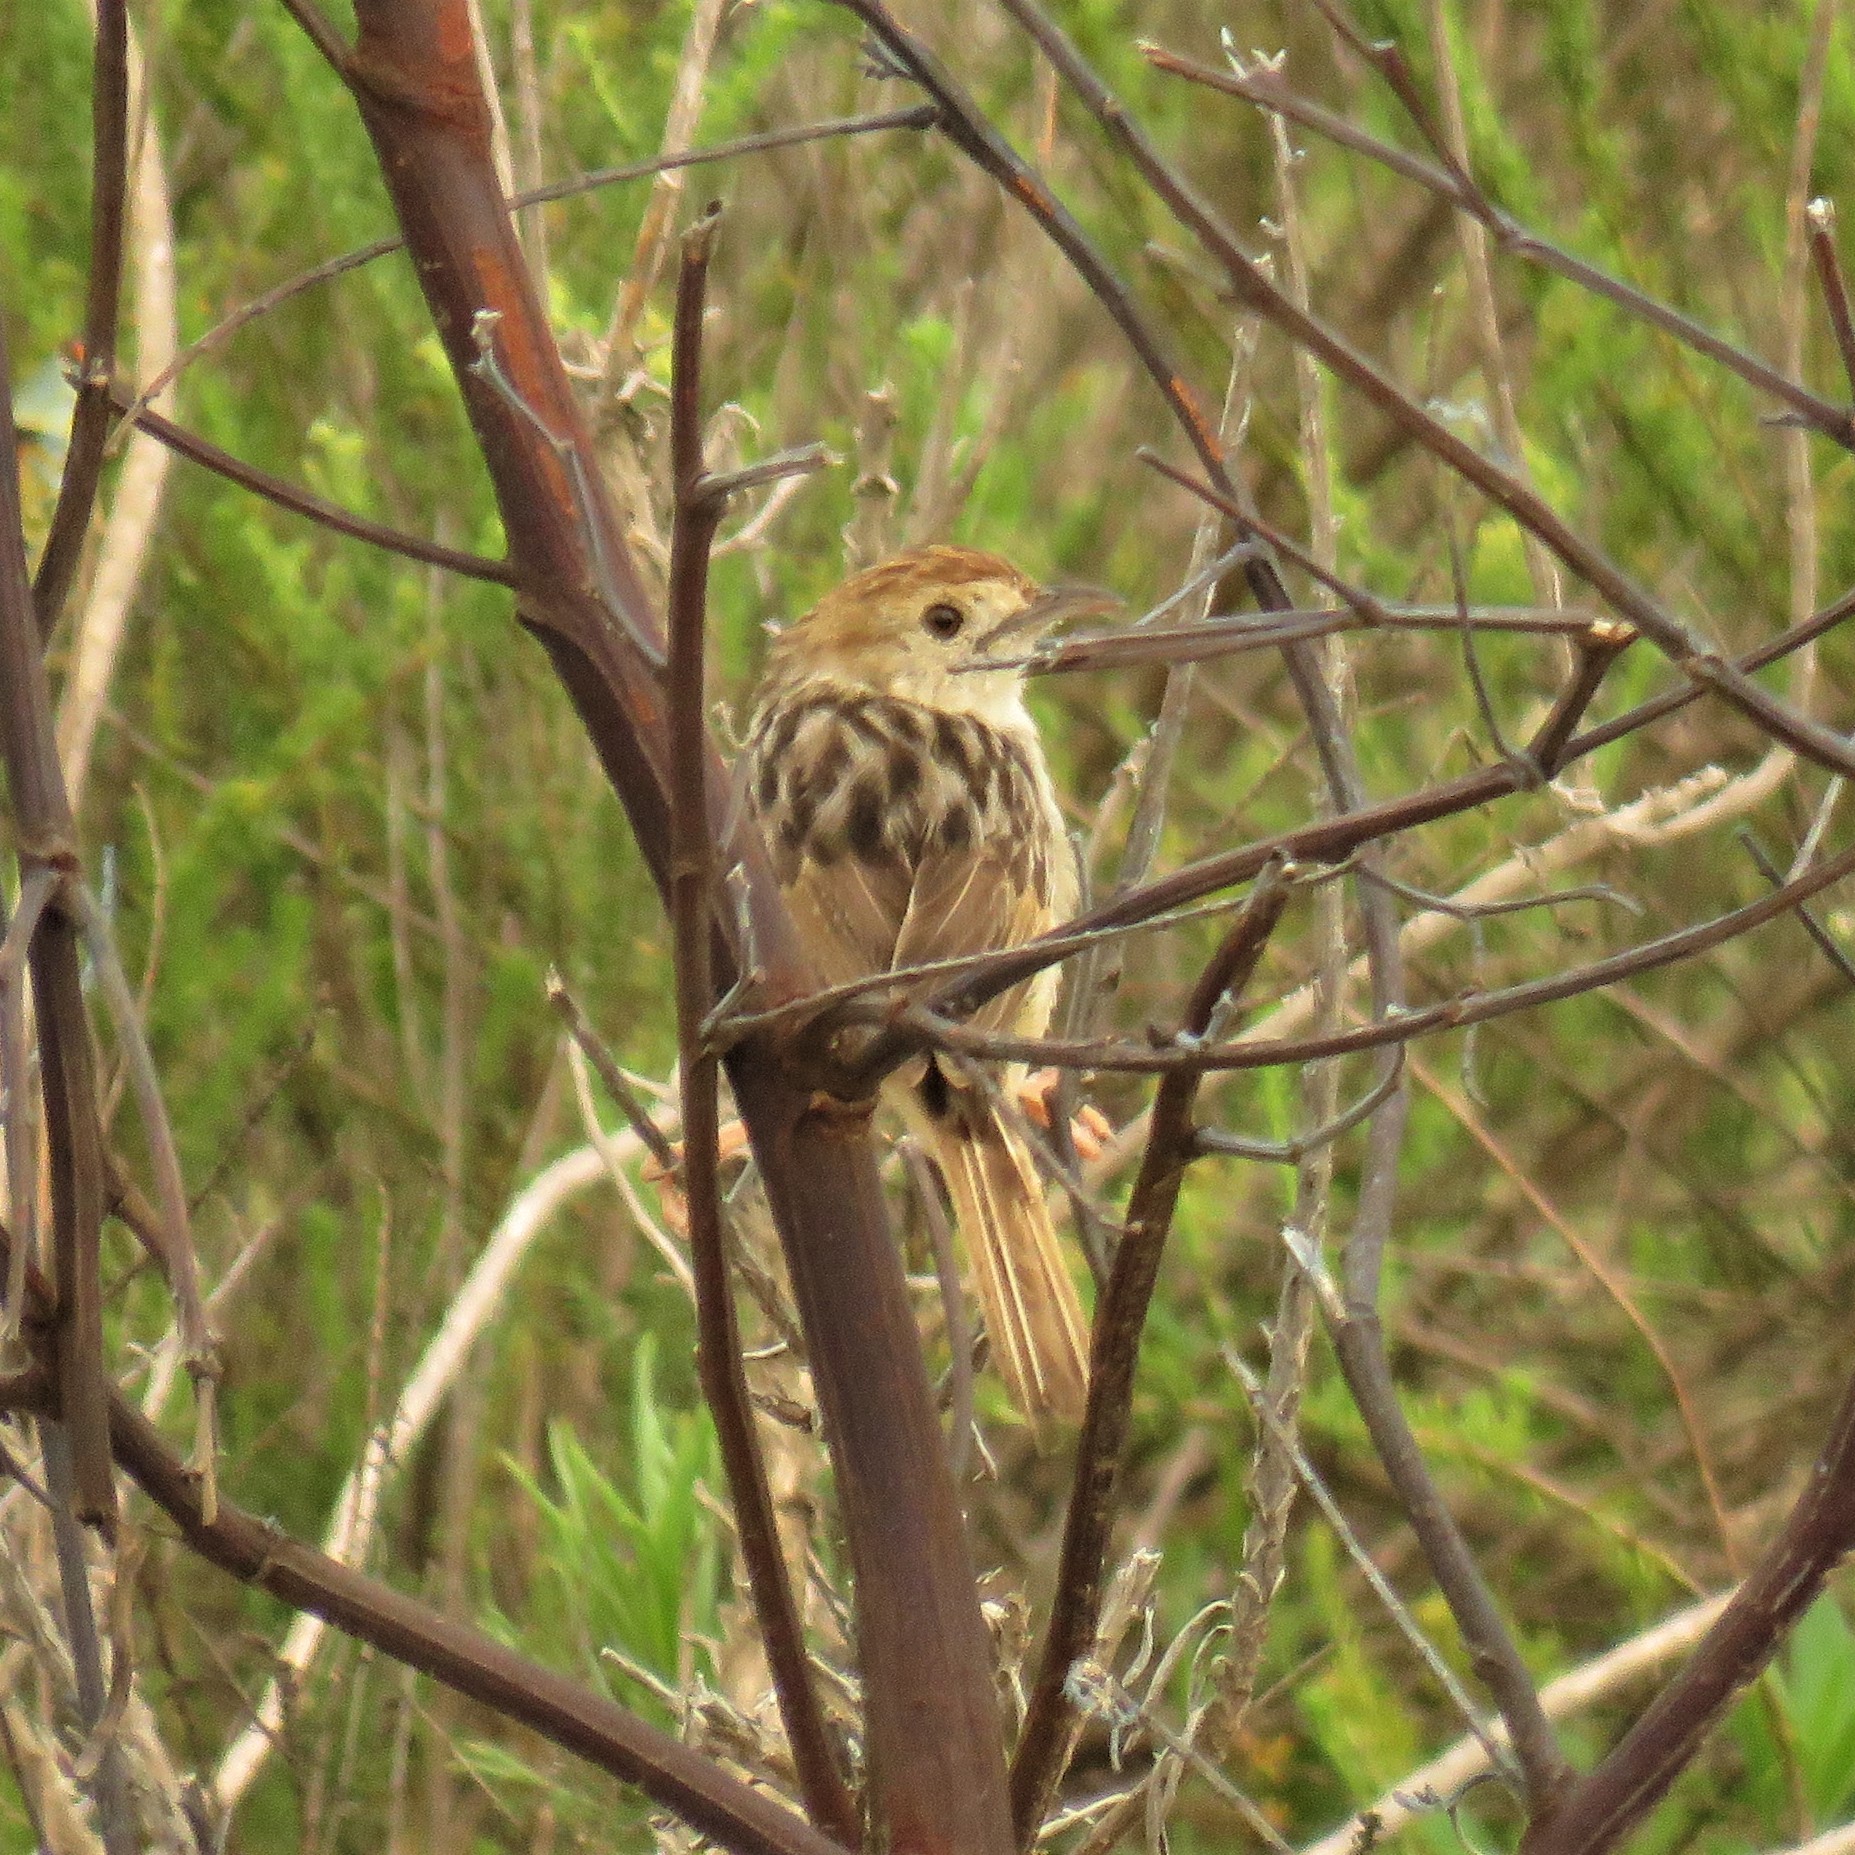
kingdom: Animalia
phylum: Chordata
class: Aves
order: Passeriformes
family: Cisticolidae
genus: Cisticola
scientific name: Cisticola lais
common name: Wailing cisticola
